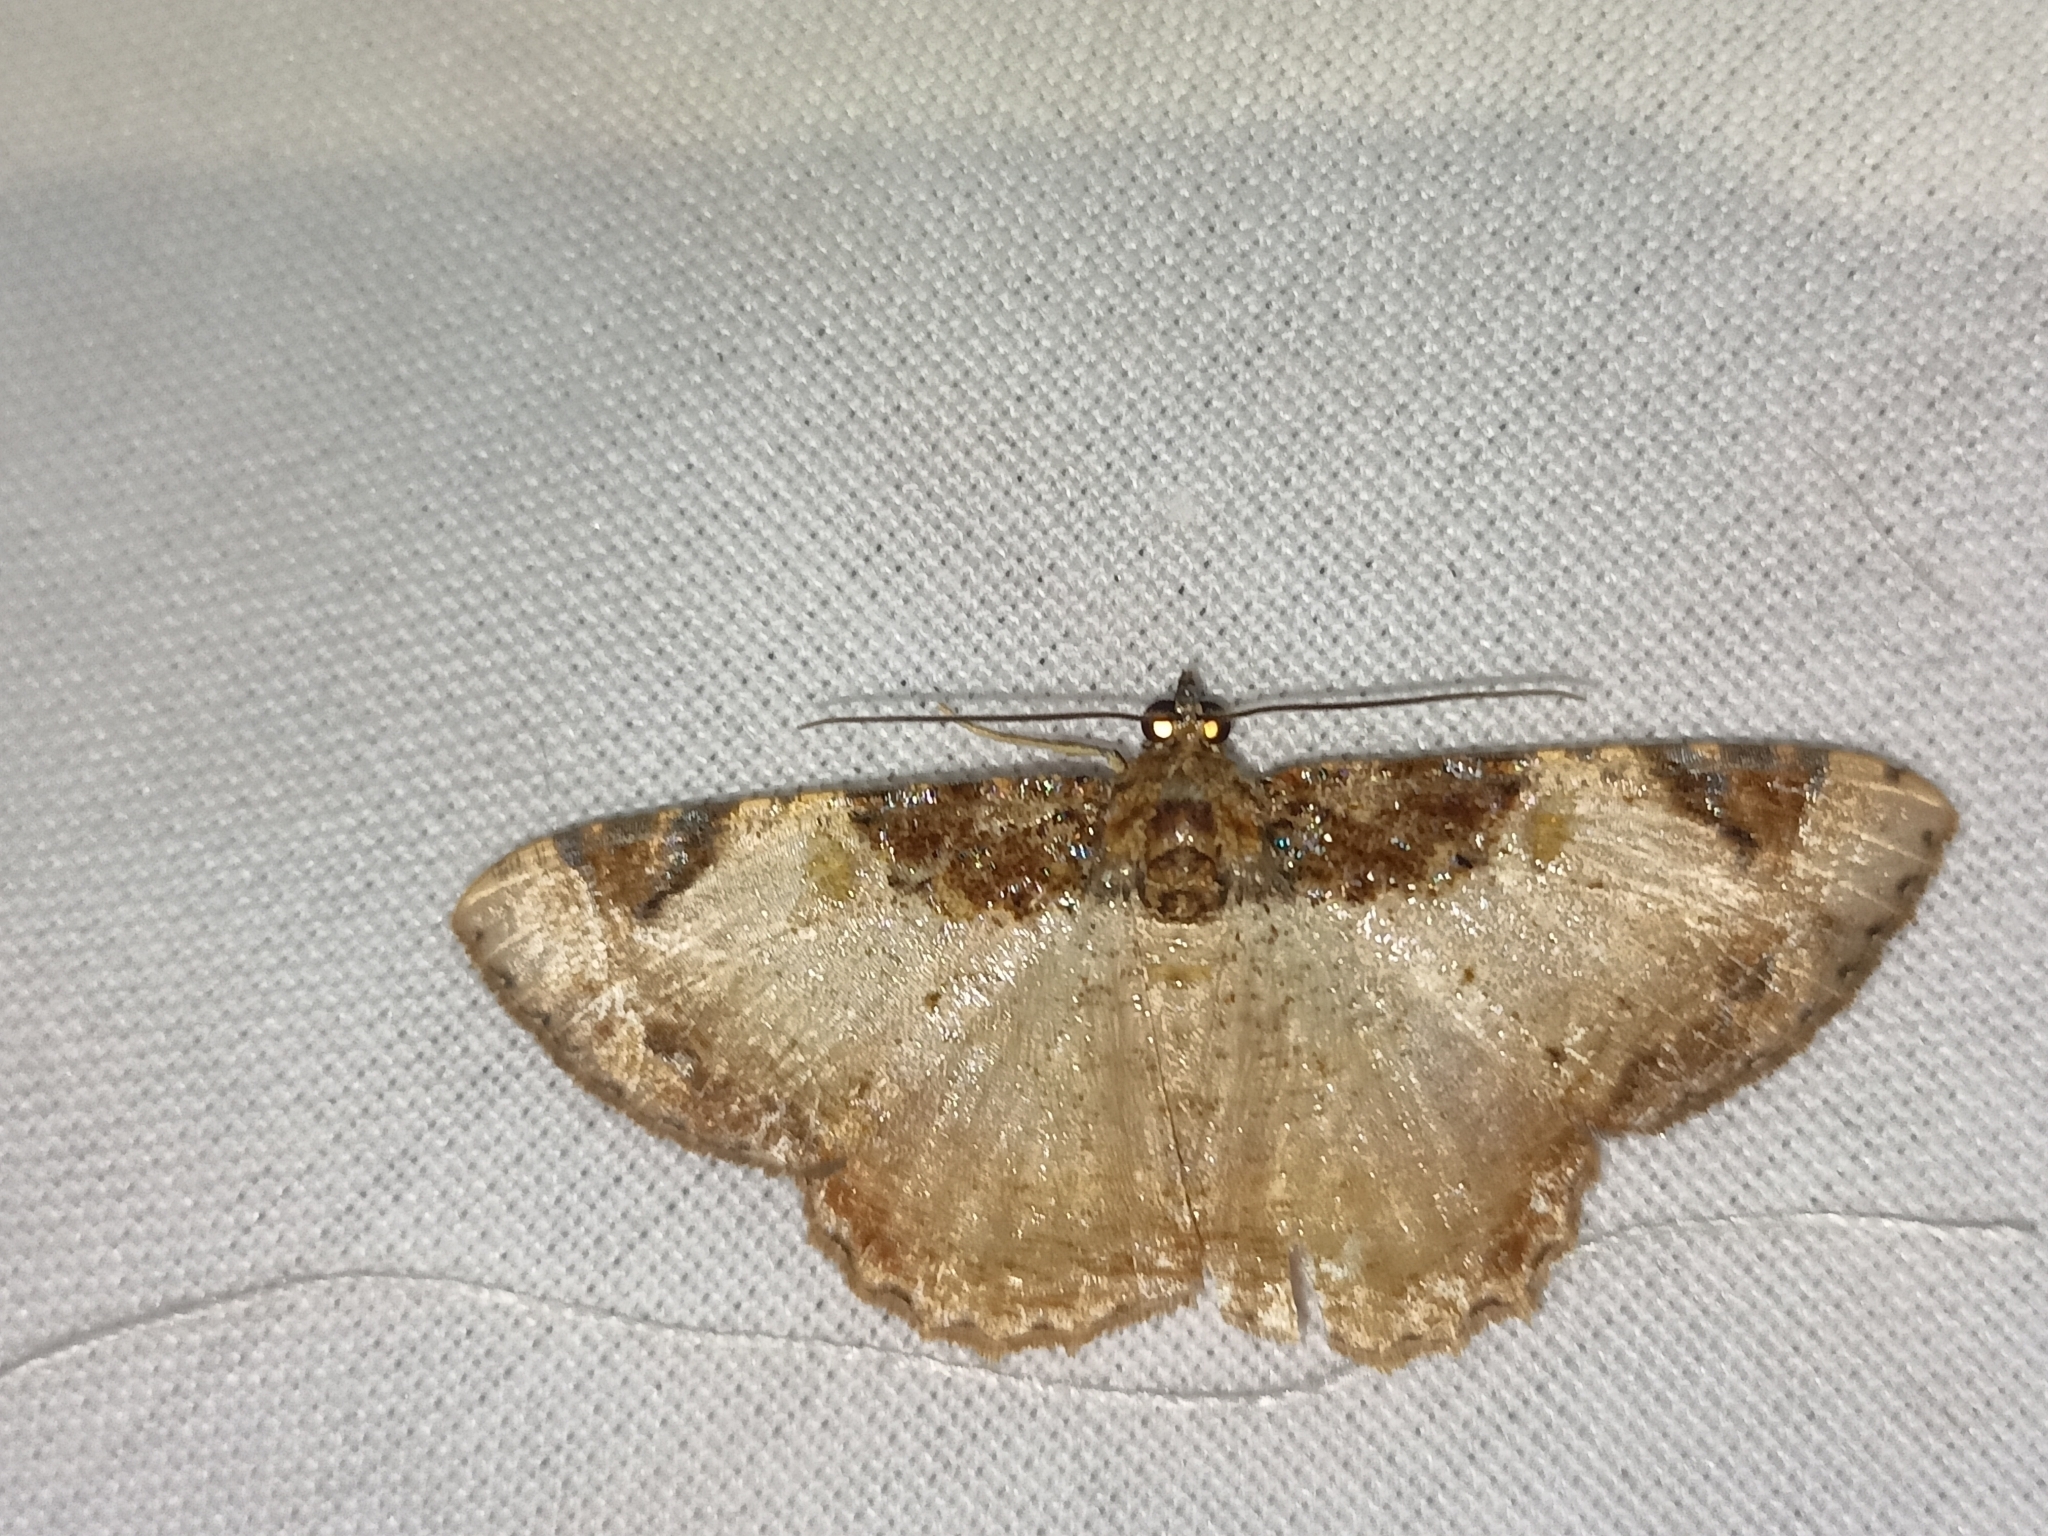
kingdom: Animalia
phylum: Arthropoda
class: Insecta
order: Lepidoptera
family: Geometridae
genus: Cassephyra
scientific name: Cassephyra lamprosticta
